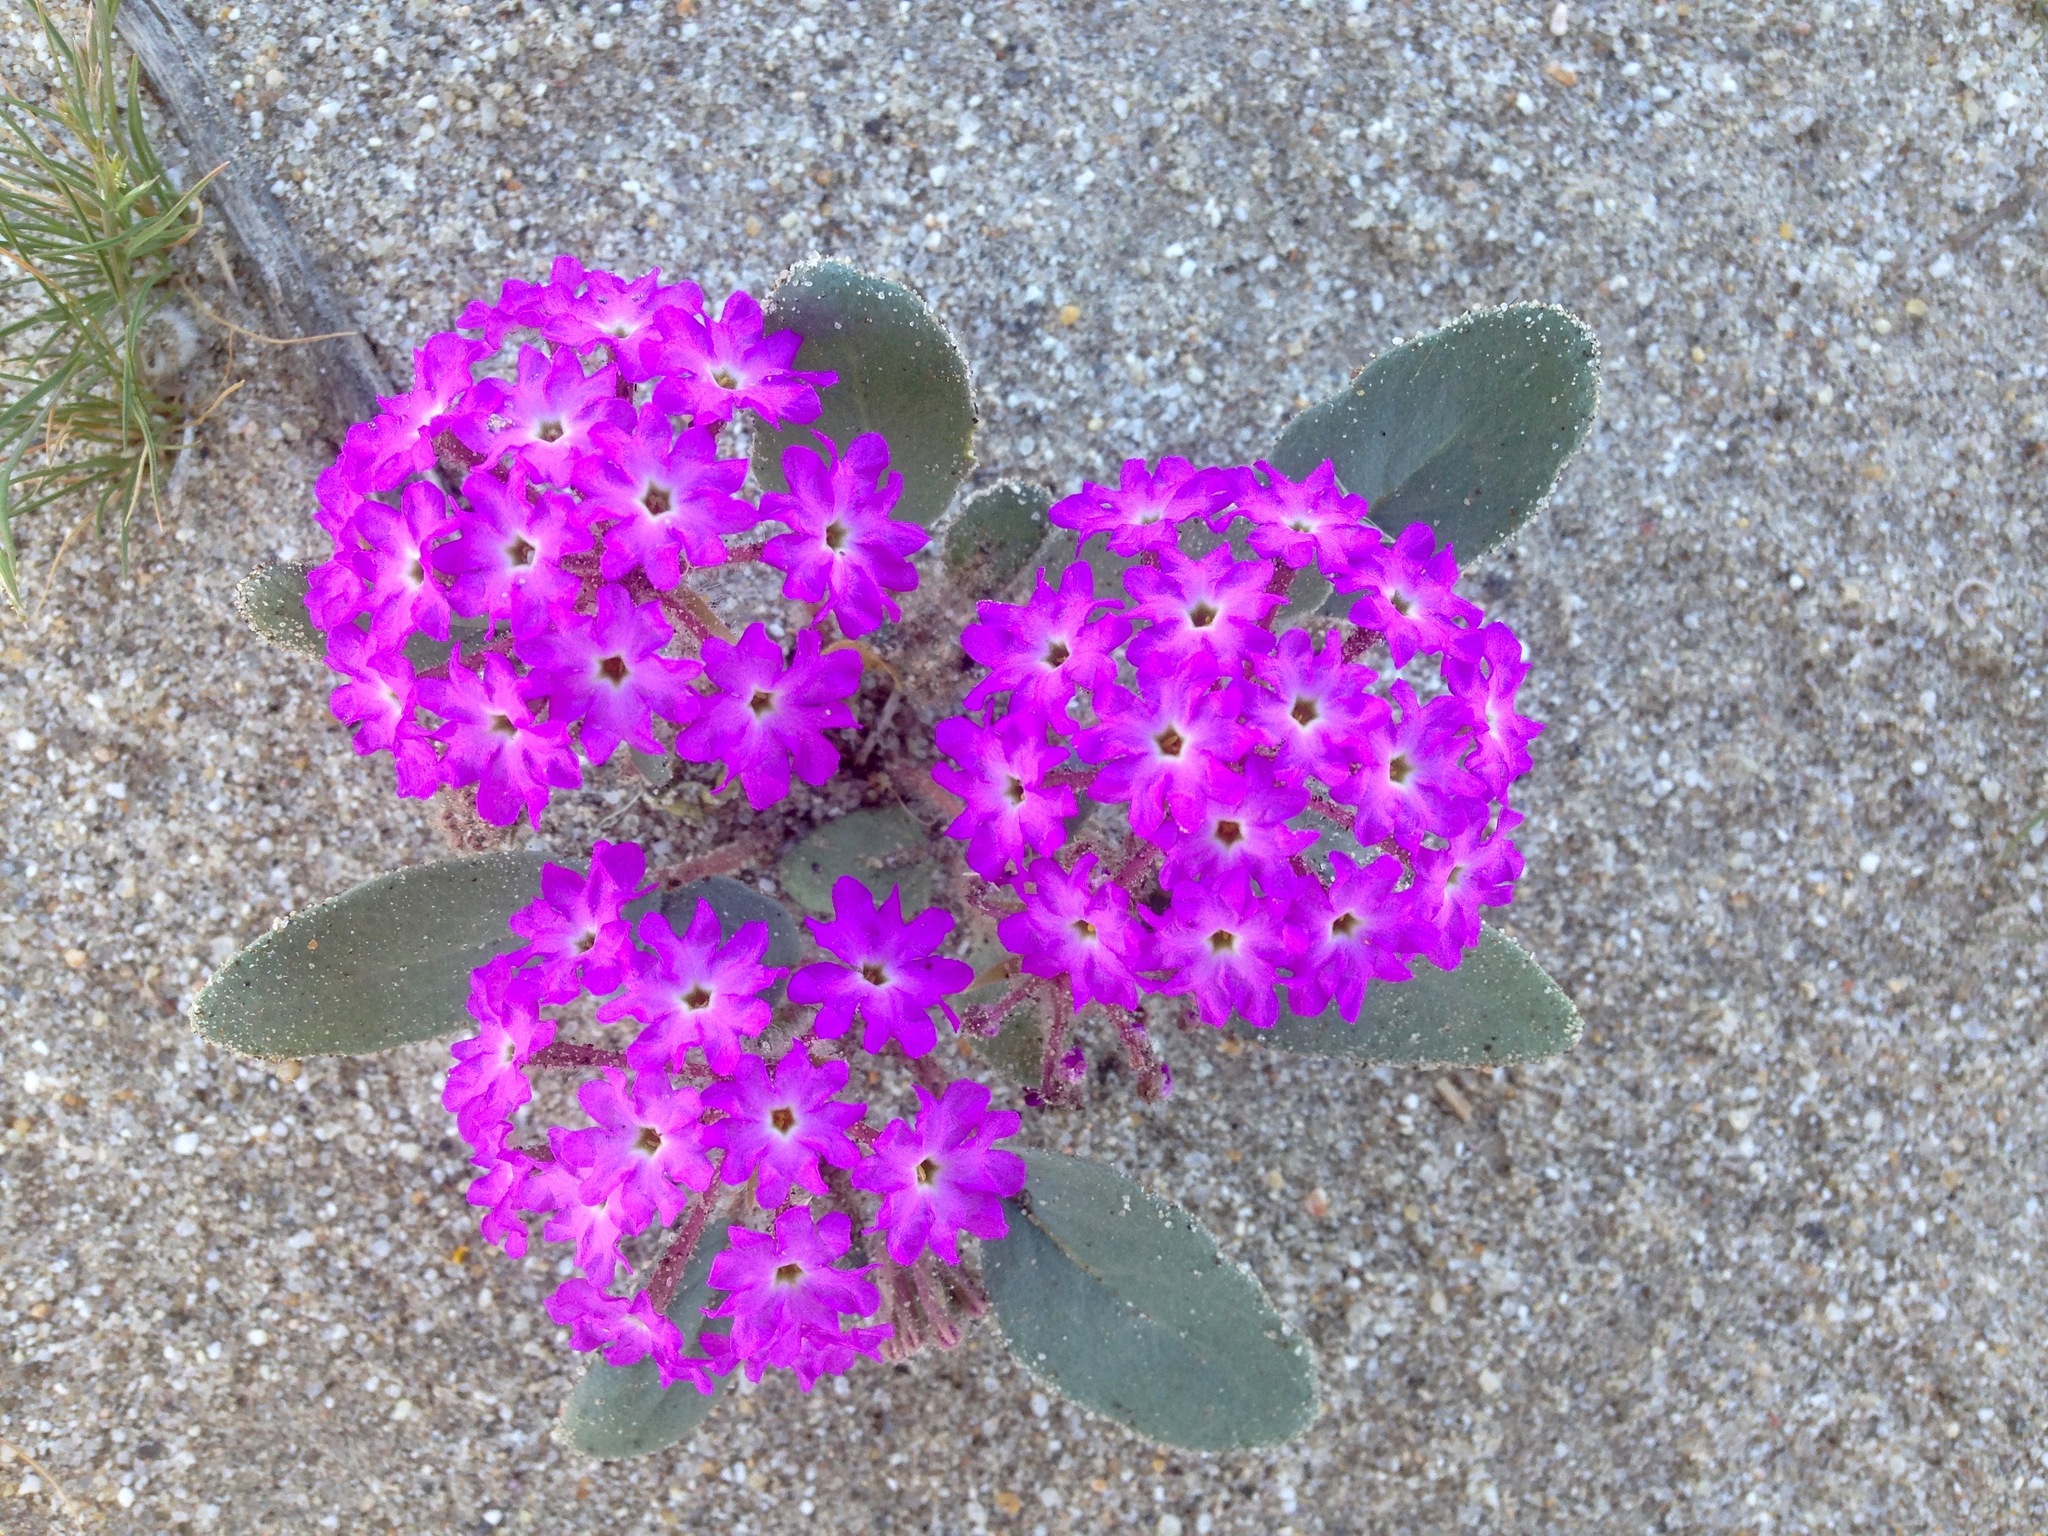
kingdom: Plantae
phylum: Tracheophyta
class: Magnoliopsida
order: Caryophyllales
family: Nyctaginaceae
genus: Abronia
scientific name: Abronia villosa
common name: Desert sand-verbena
